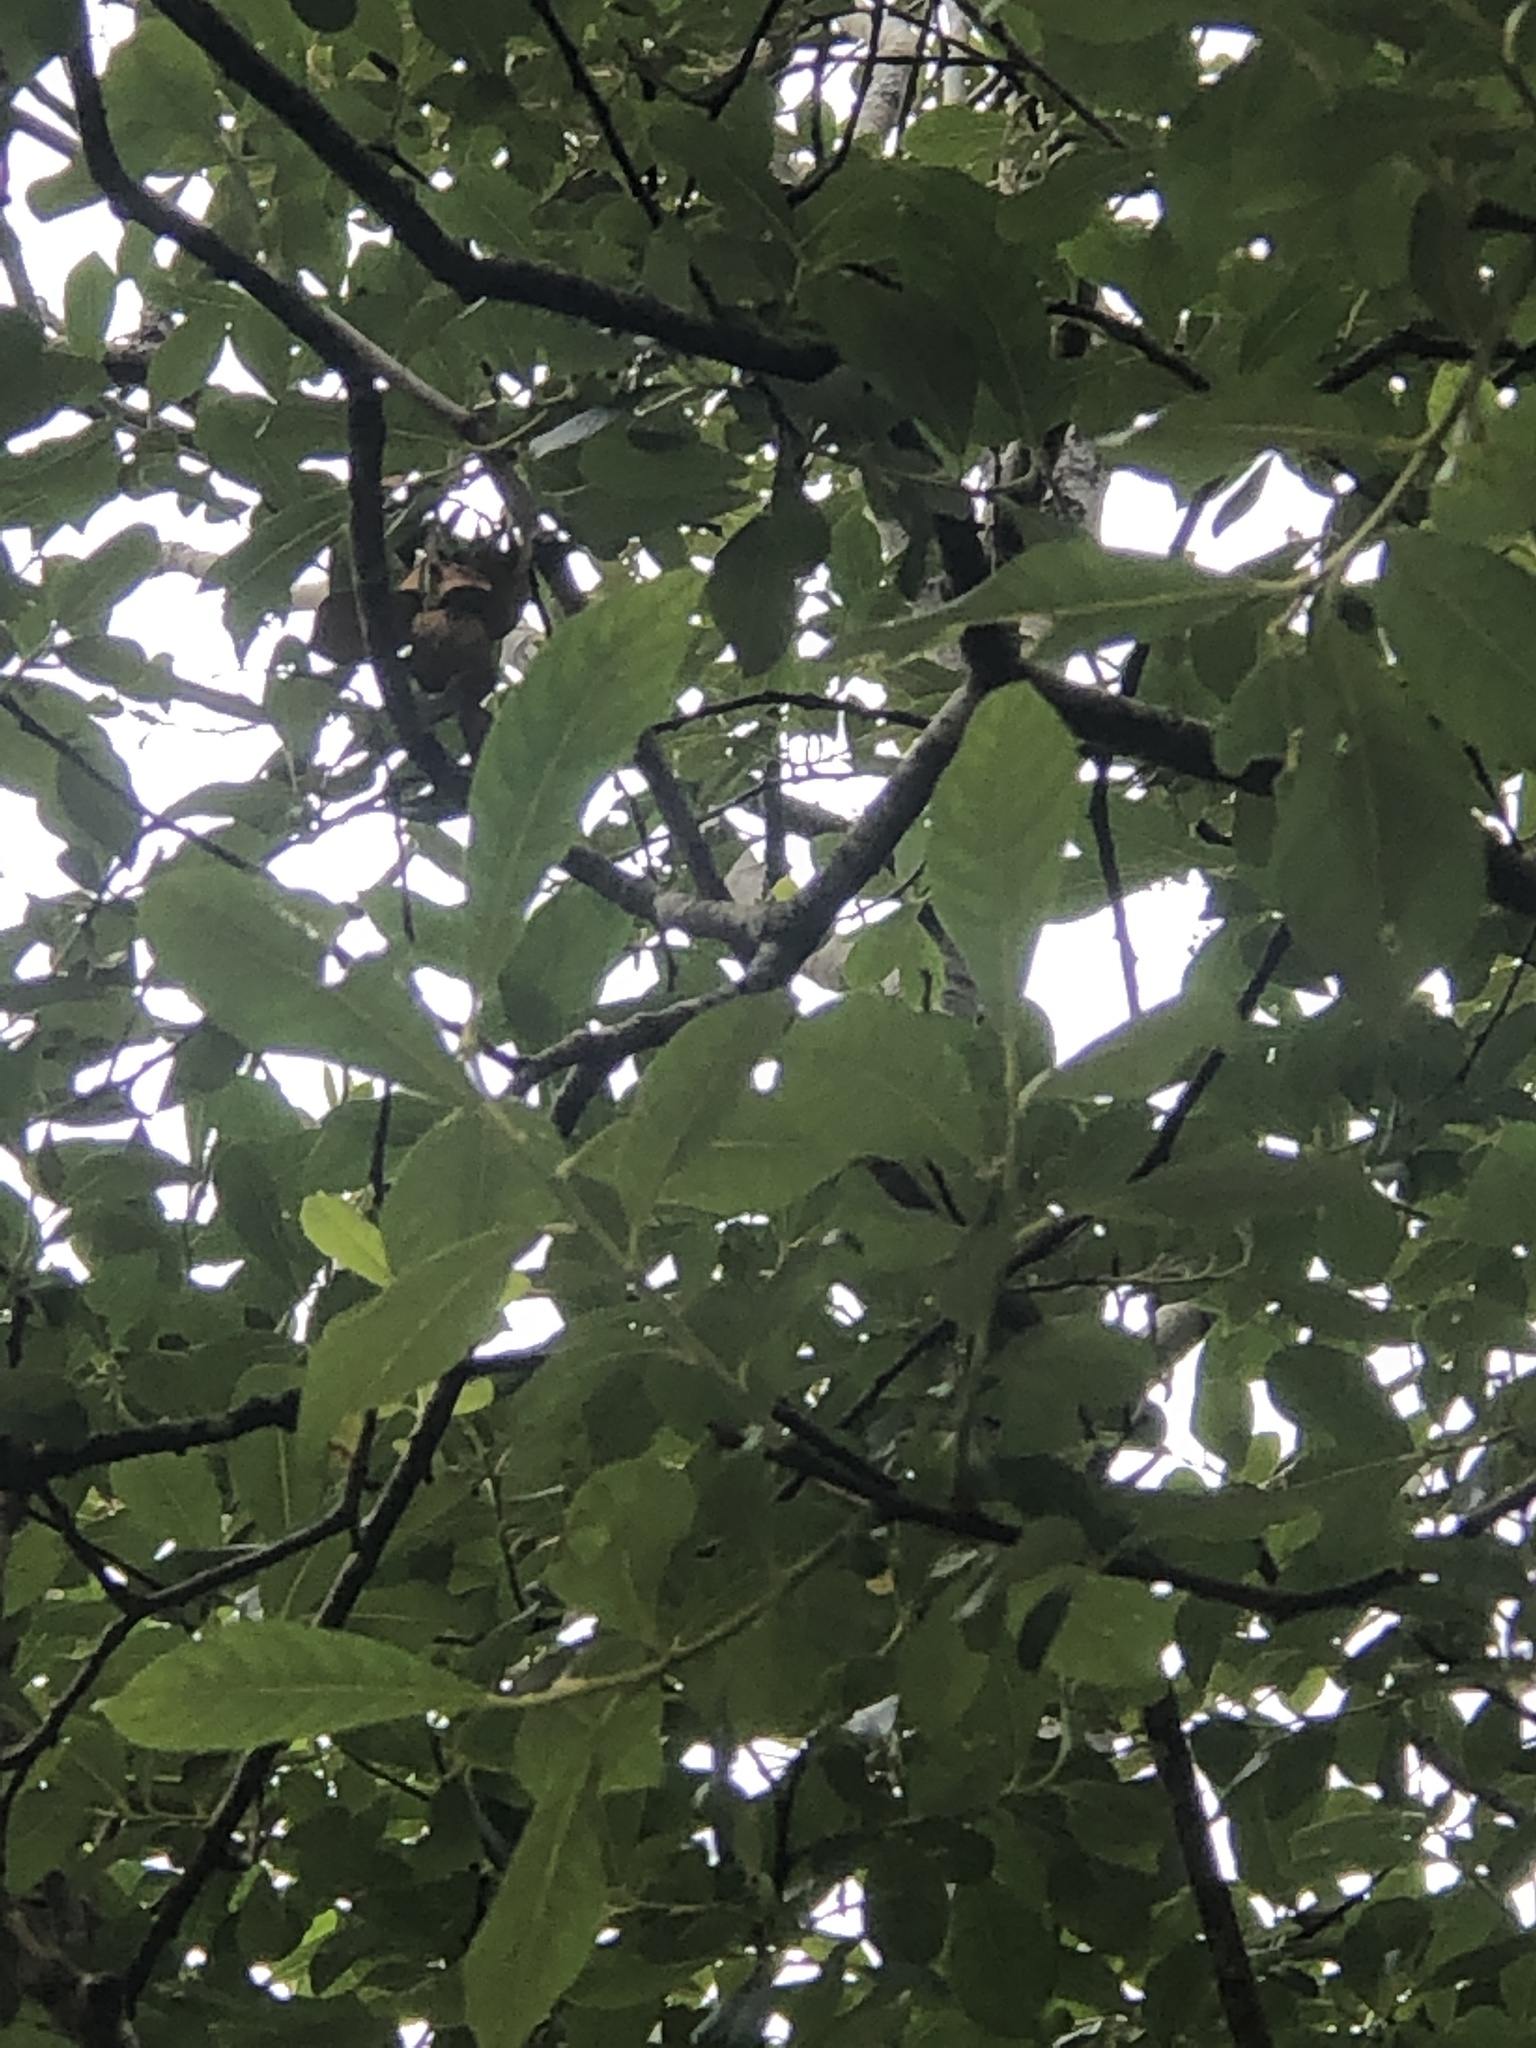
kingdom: Animalia
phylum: Chordata
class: Aves
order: Piciformes
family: Picidae
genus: Dryobates
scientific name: Dryobates pubescens
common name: Downy woodpecker
